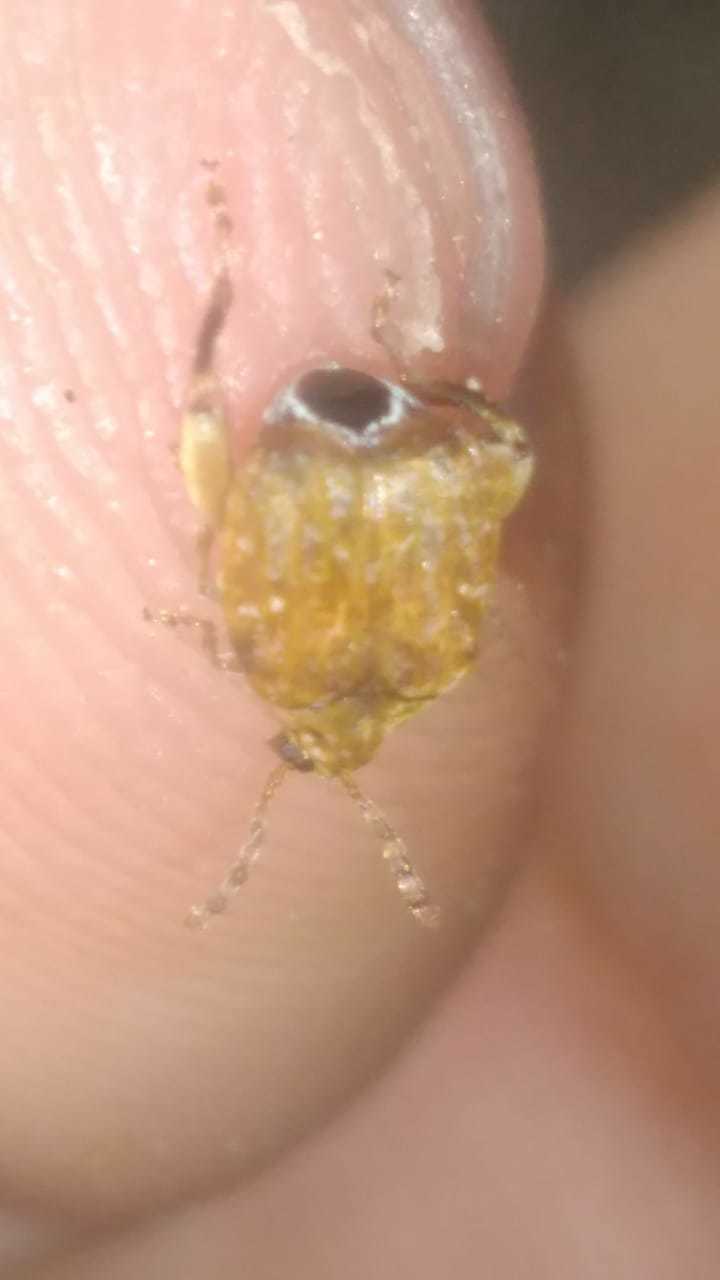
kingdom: Animalia
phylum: Arthropoda
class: Insecta
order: Coleoptera
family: Chrysomelidae
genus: Gibbobruchus
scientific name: Gibbobruchus
